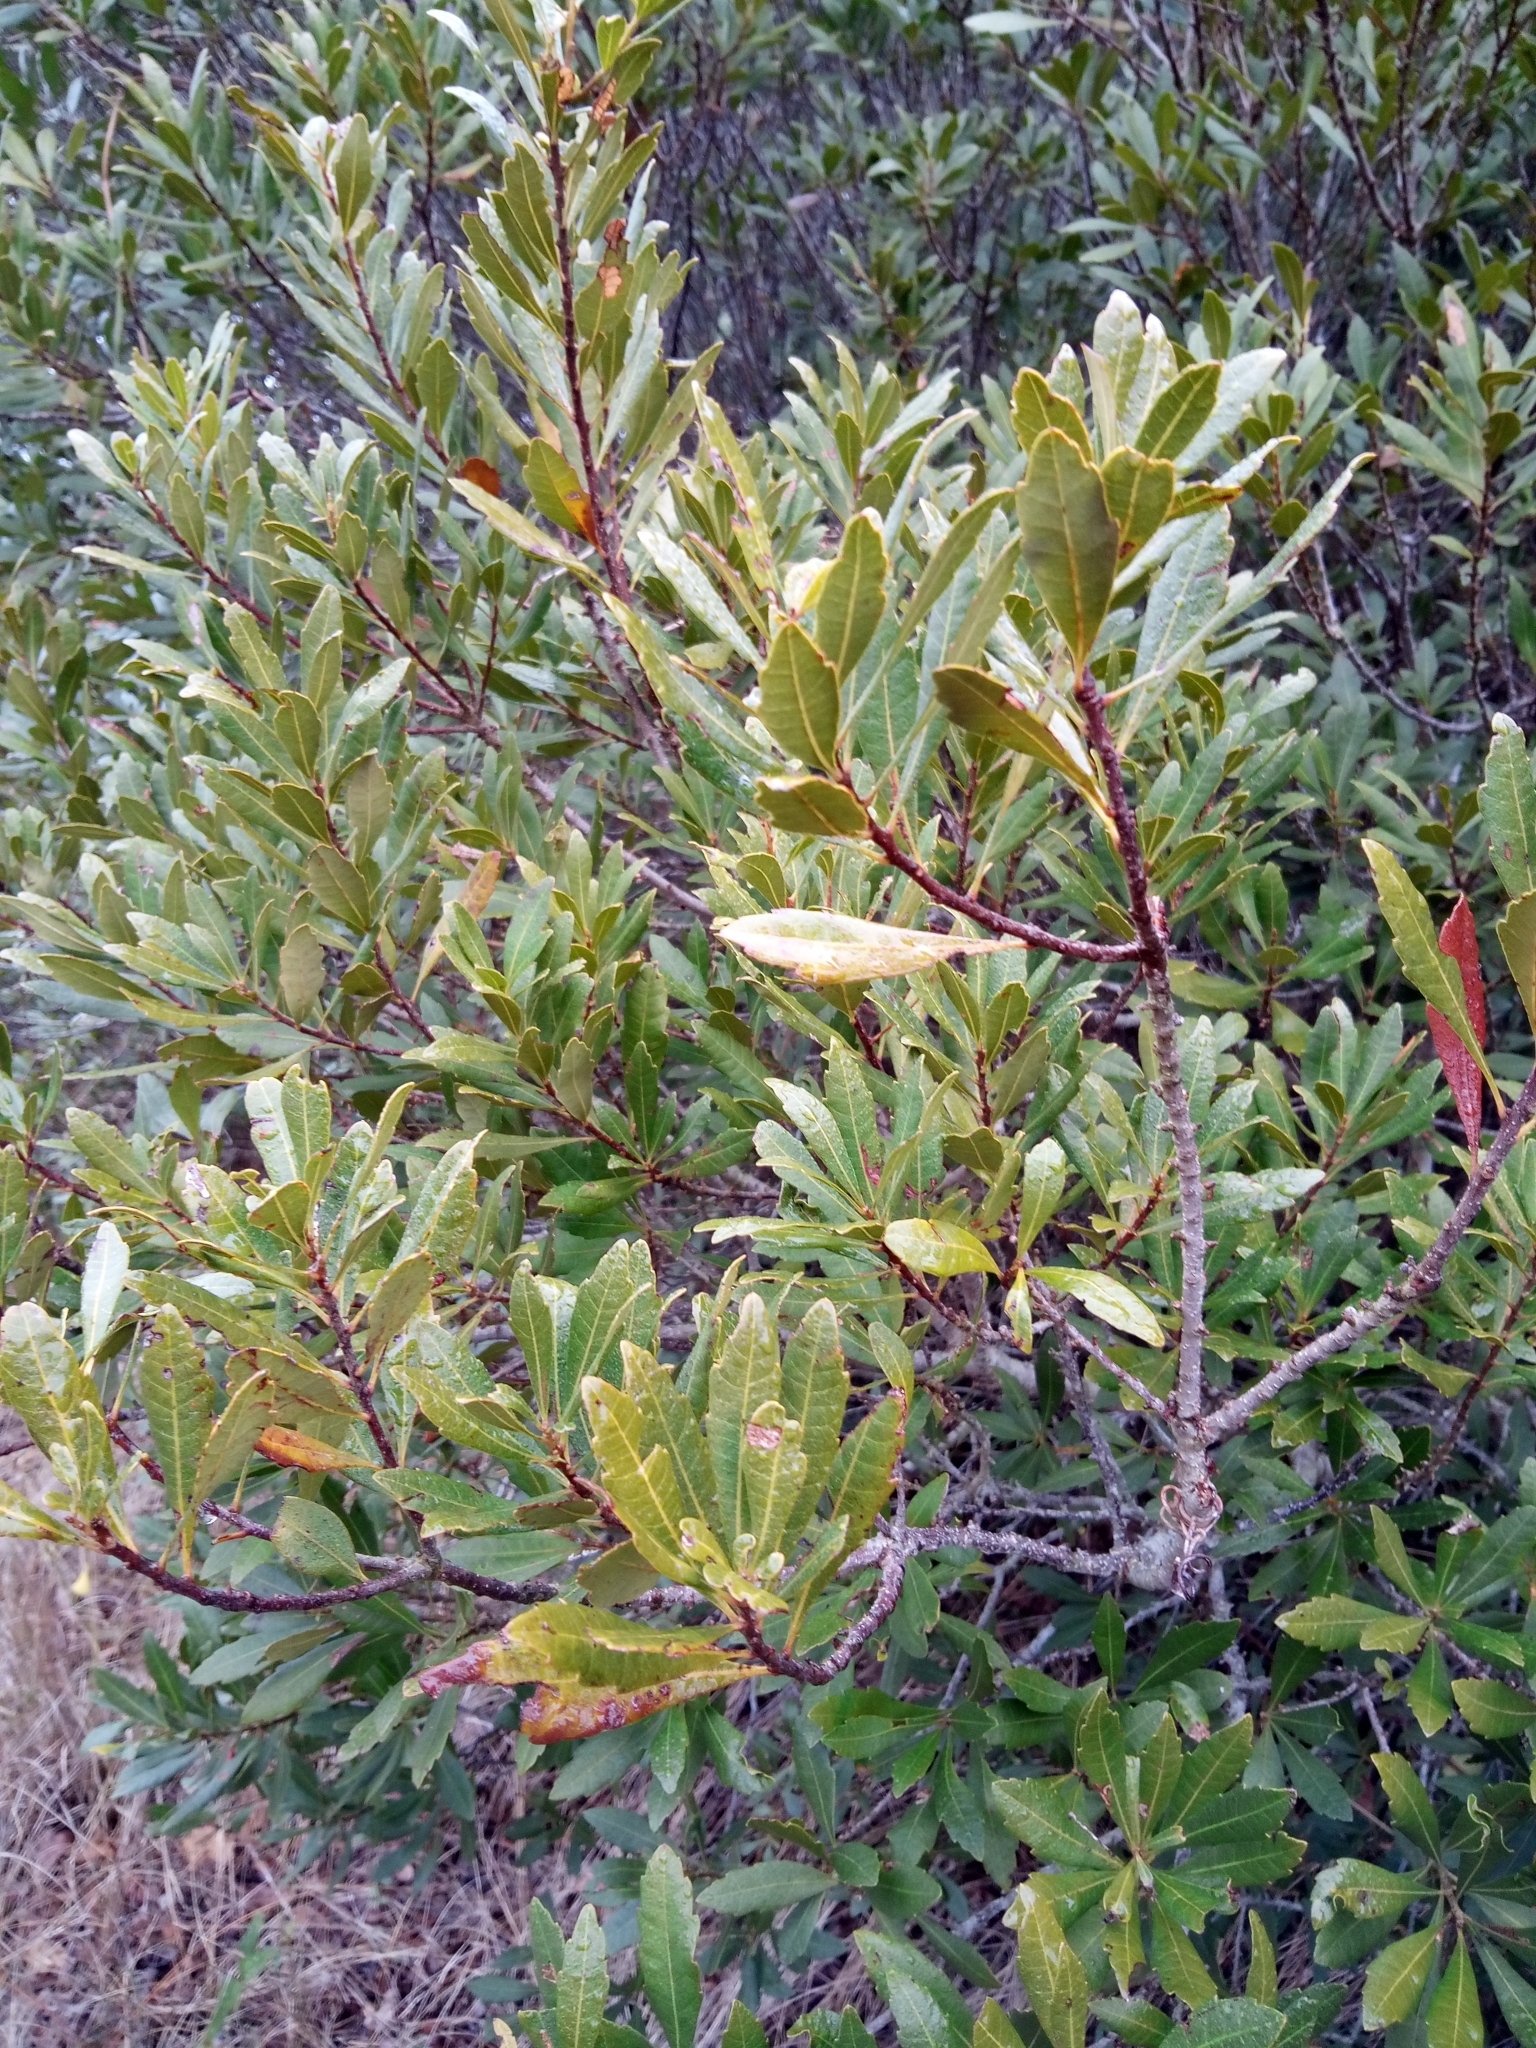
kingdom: Plantae
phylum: Tracheophyta
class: Magnoliopsida
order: Fagales
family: Myricaceae
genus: Morella
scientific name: Morella cerifera
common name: Wax myrtle
